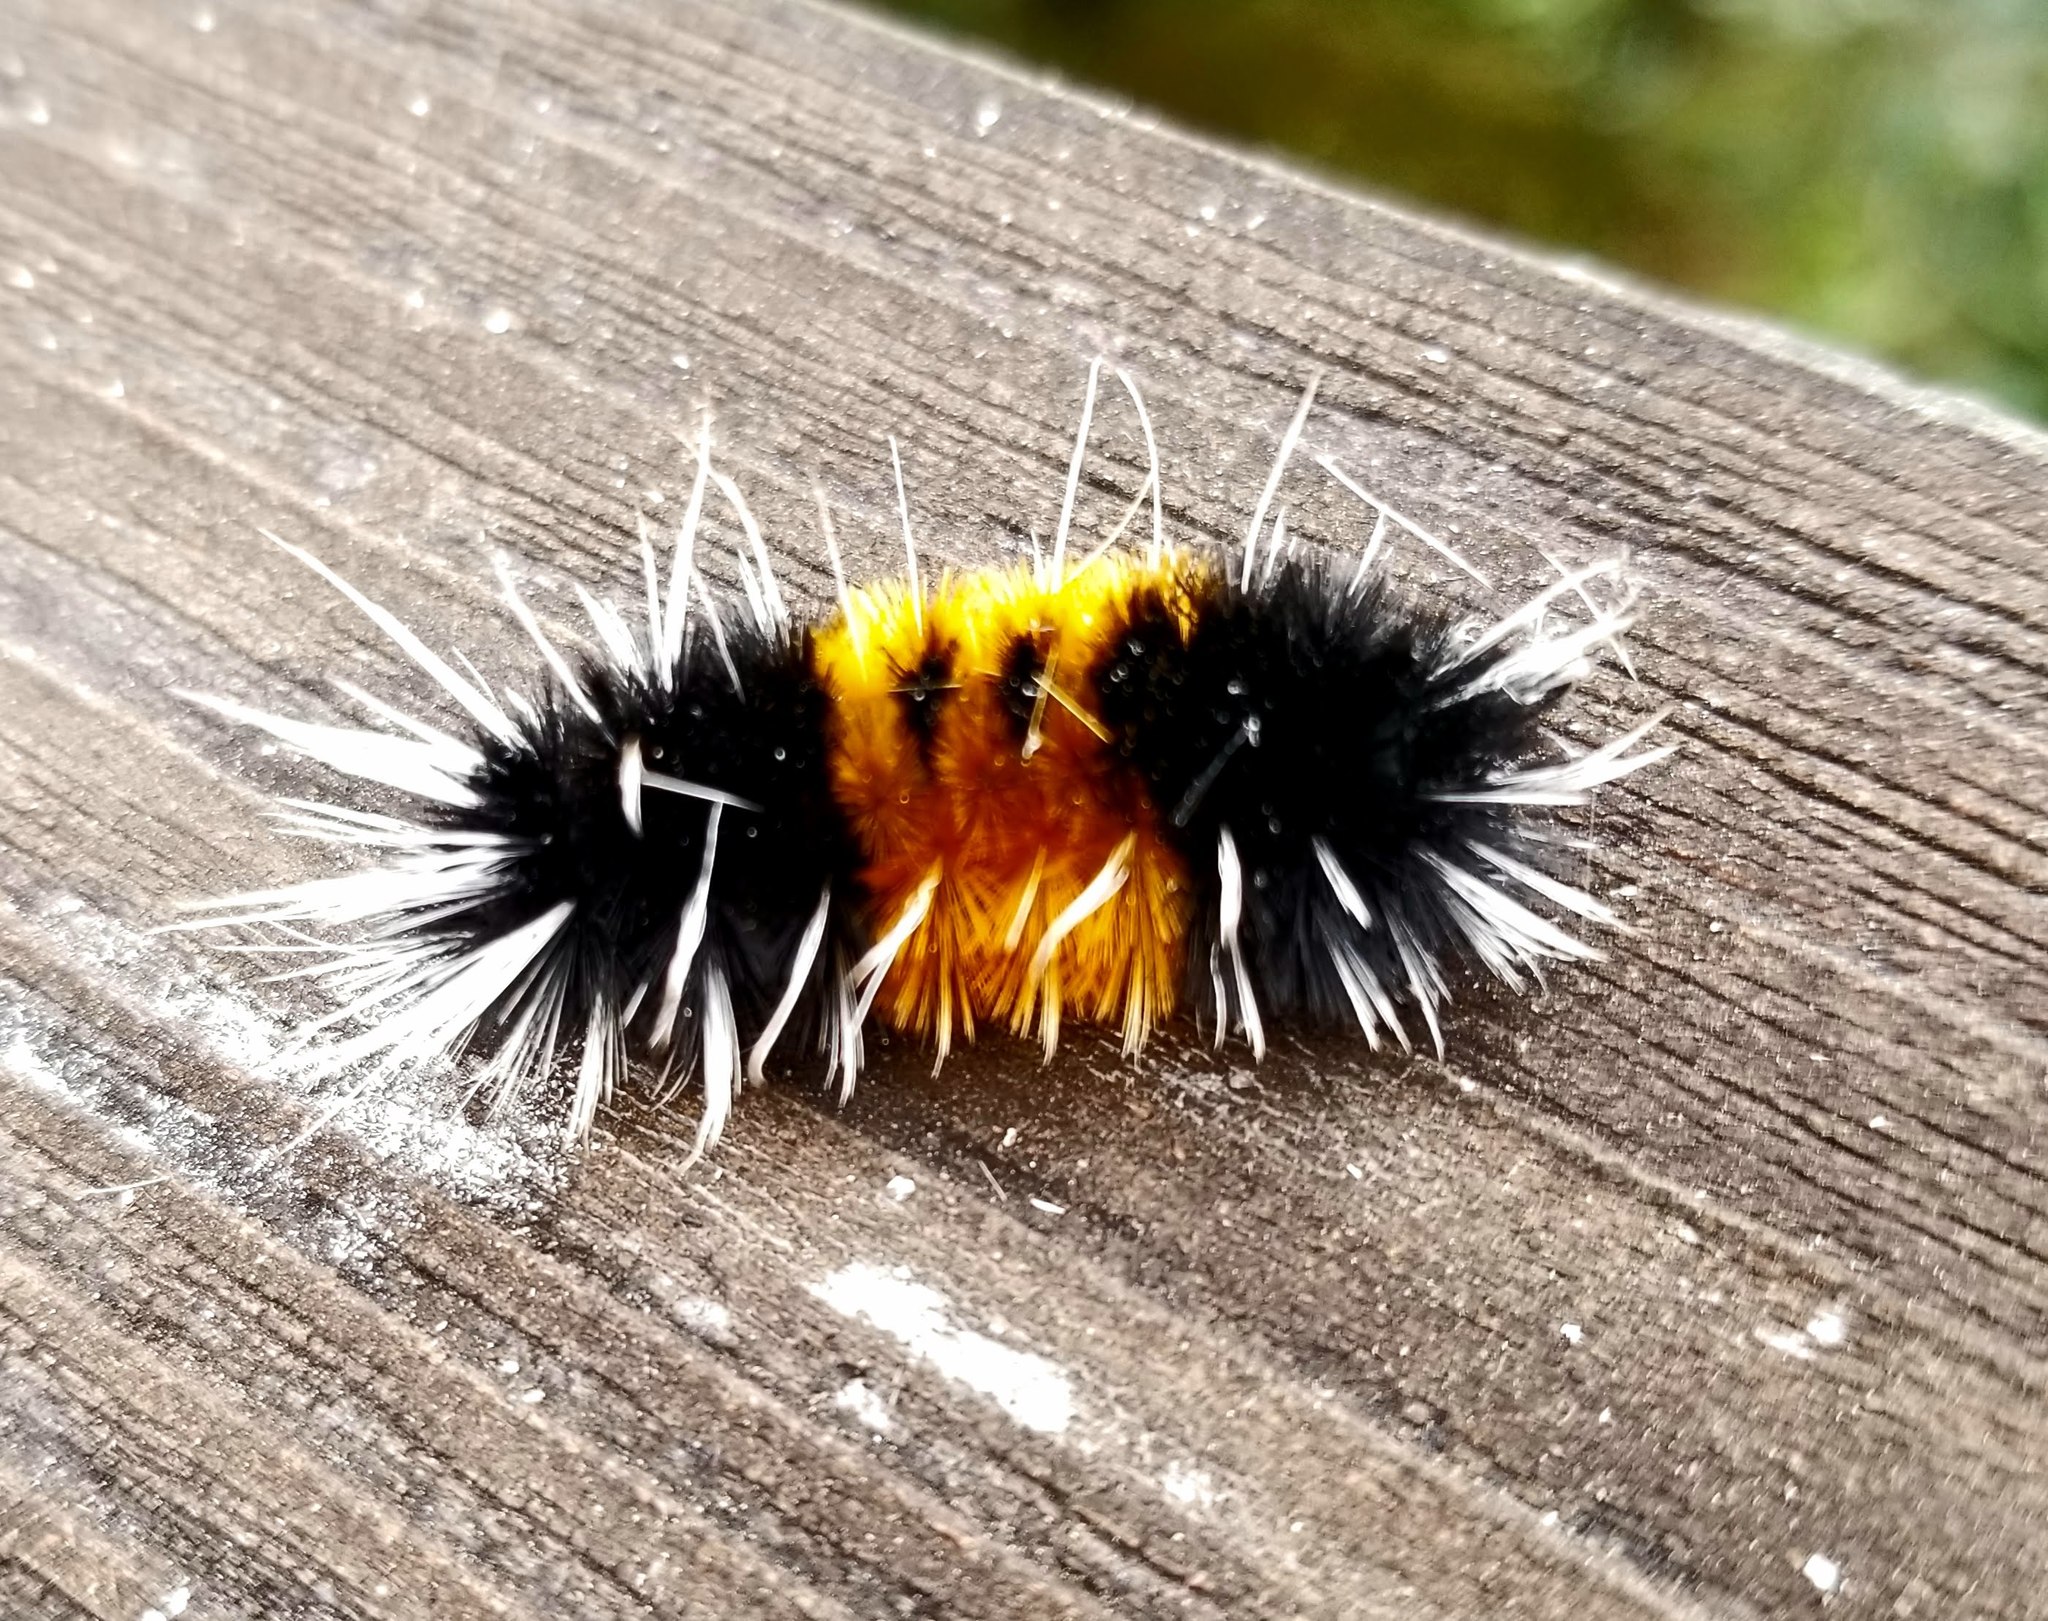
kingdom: Animalia
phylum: Arthropoda
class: Insecta
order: Lepidoptera
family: Erebidae
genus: Lophocampa
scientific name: Lophocampa maculata
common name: Spotted tussock moth
